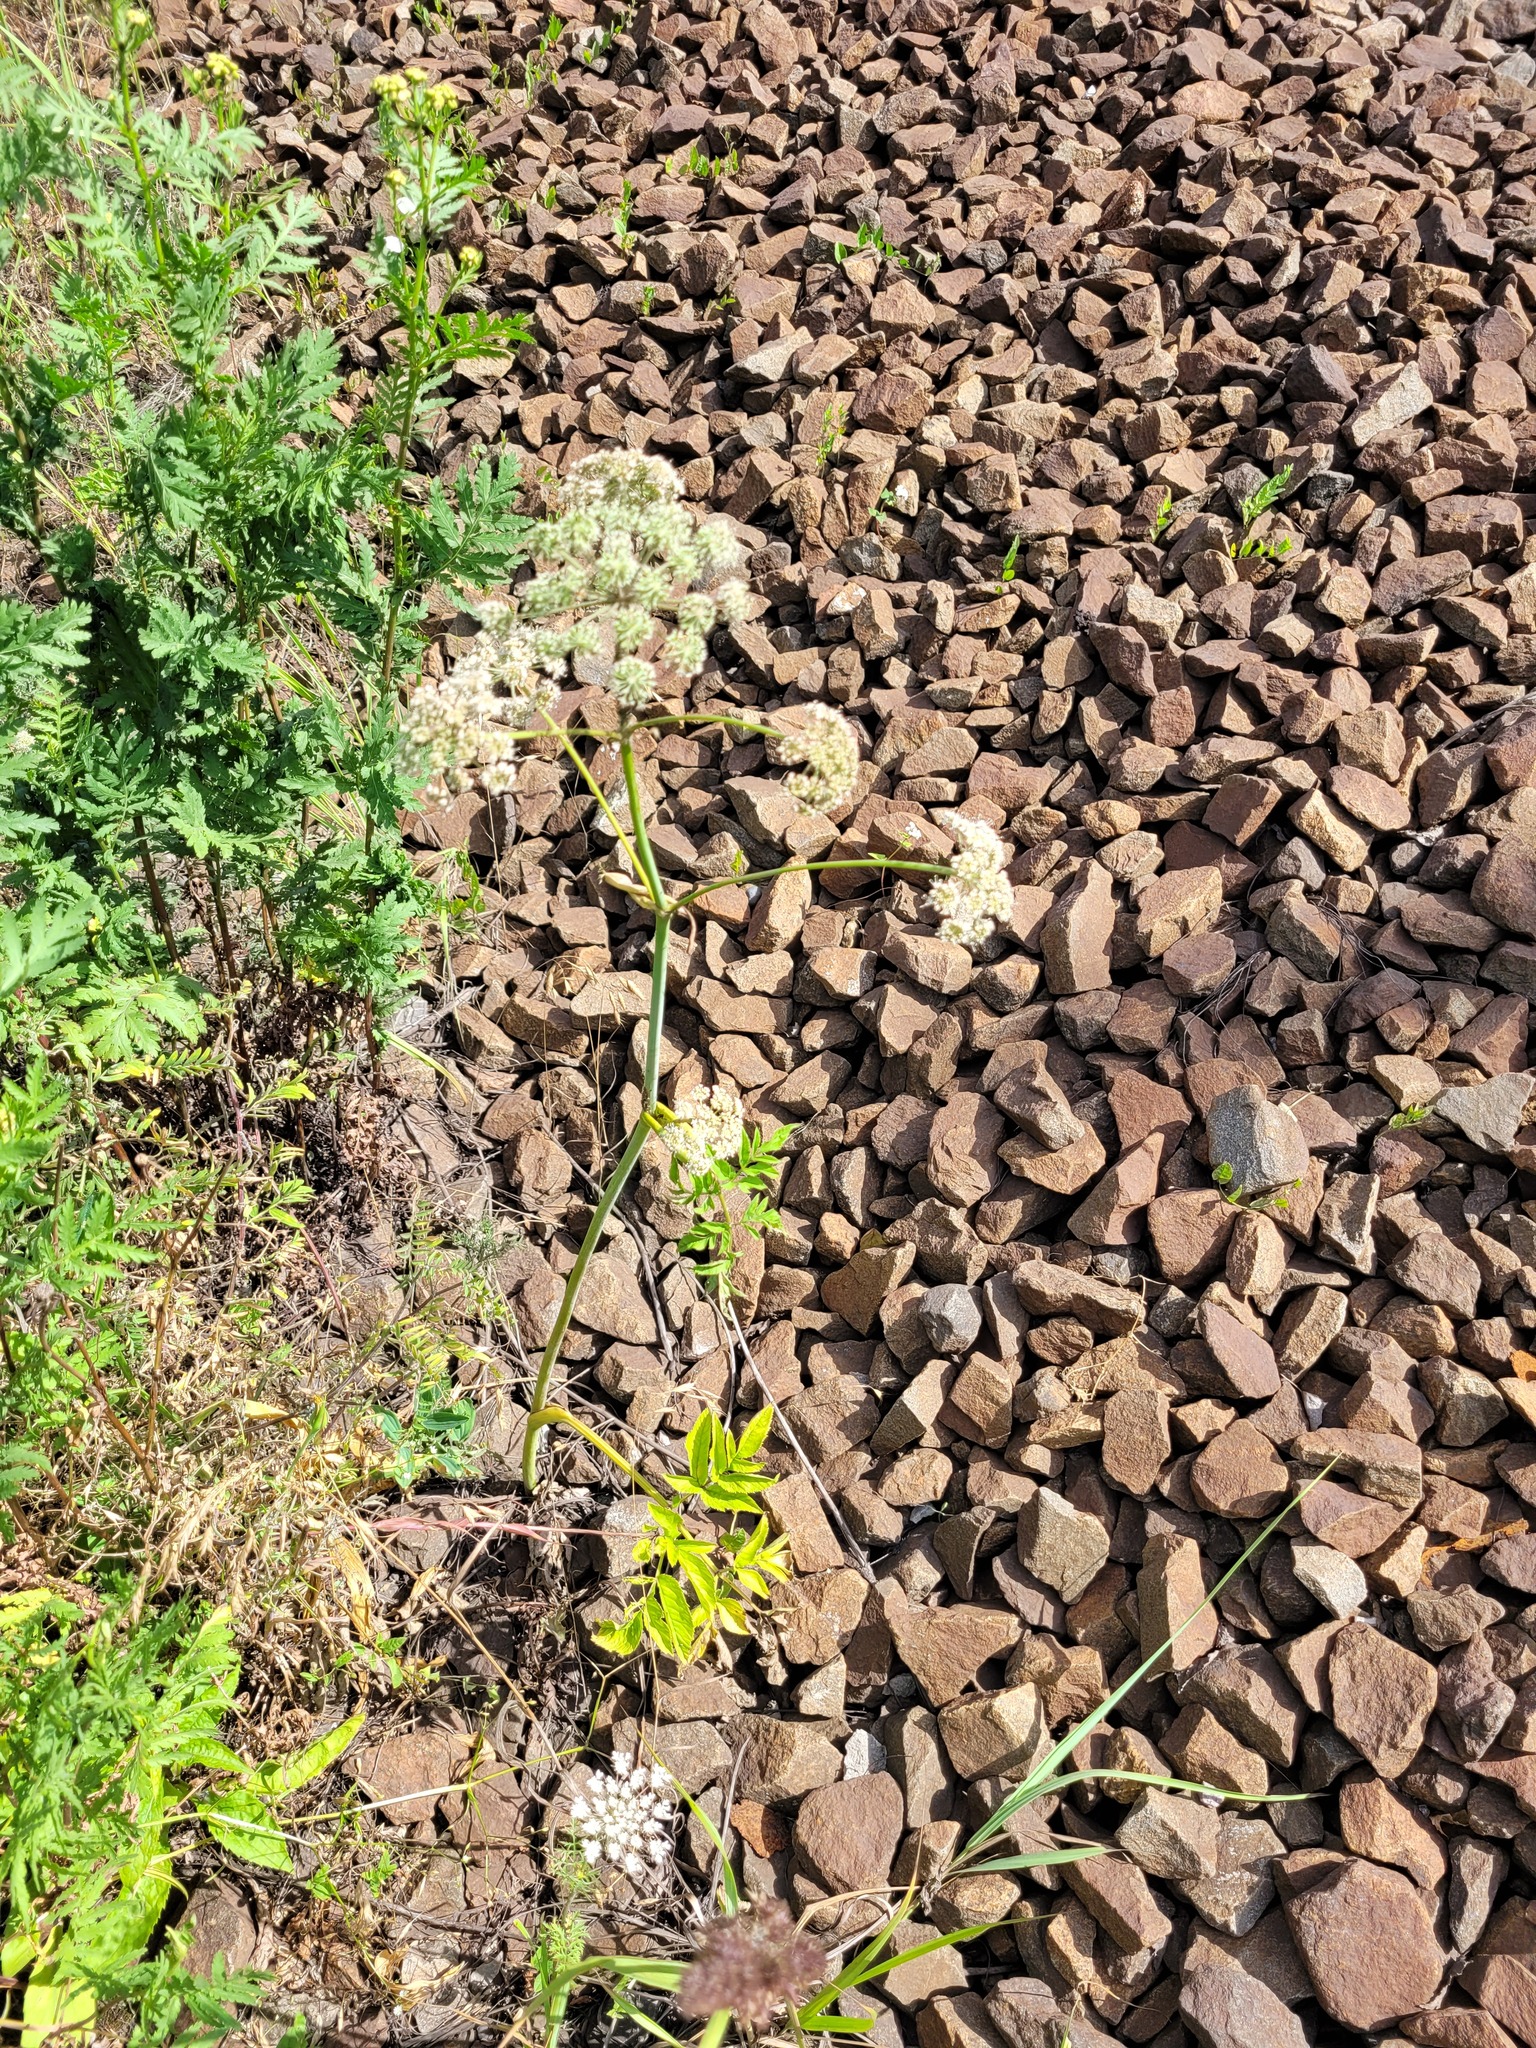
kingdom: Plantae
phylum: Tracheophyta
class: Magnoliopsida
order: Apiales
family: Apiaceae
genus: Angelica
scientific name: Angelica sylvestris
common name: Wild angelica
